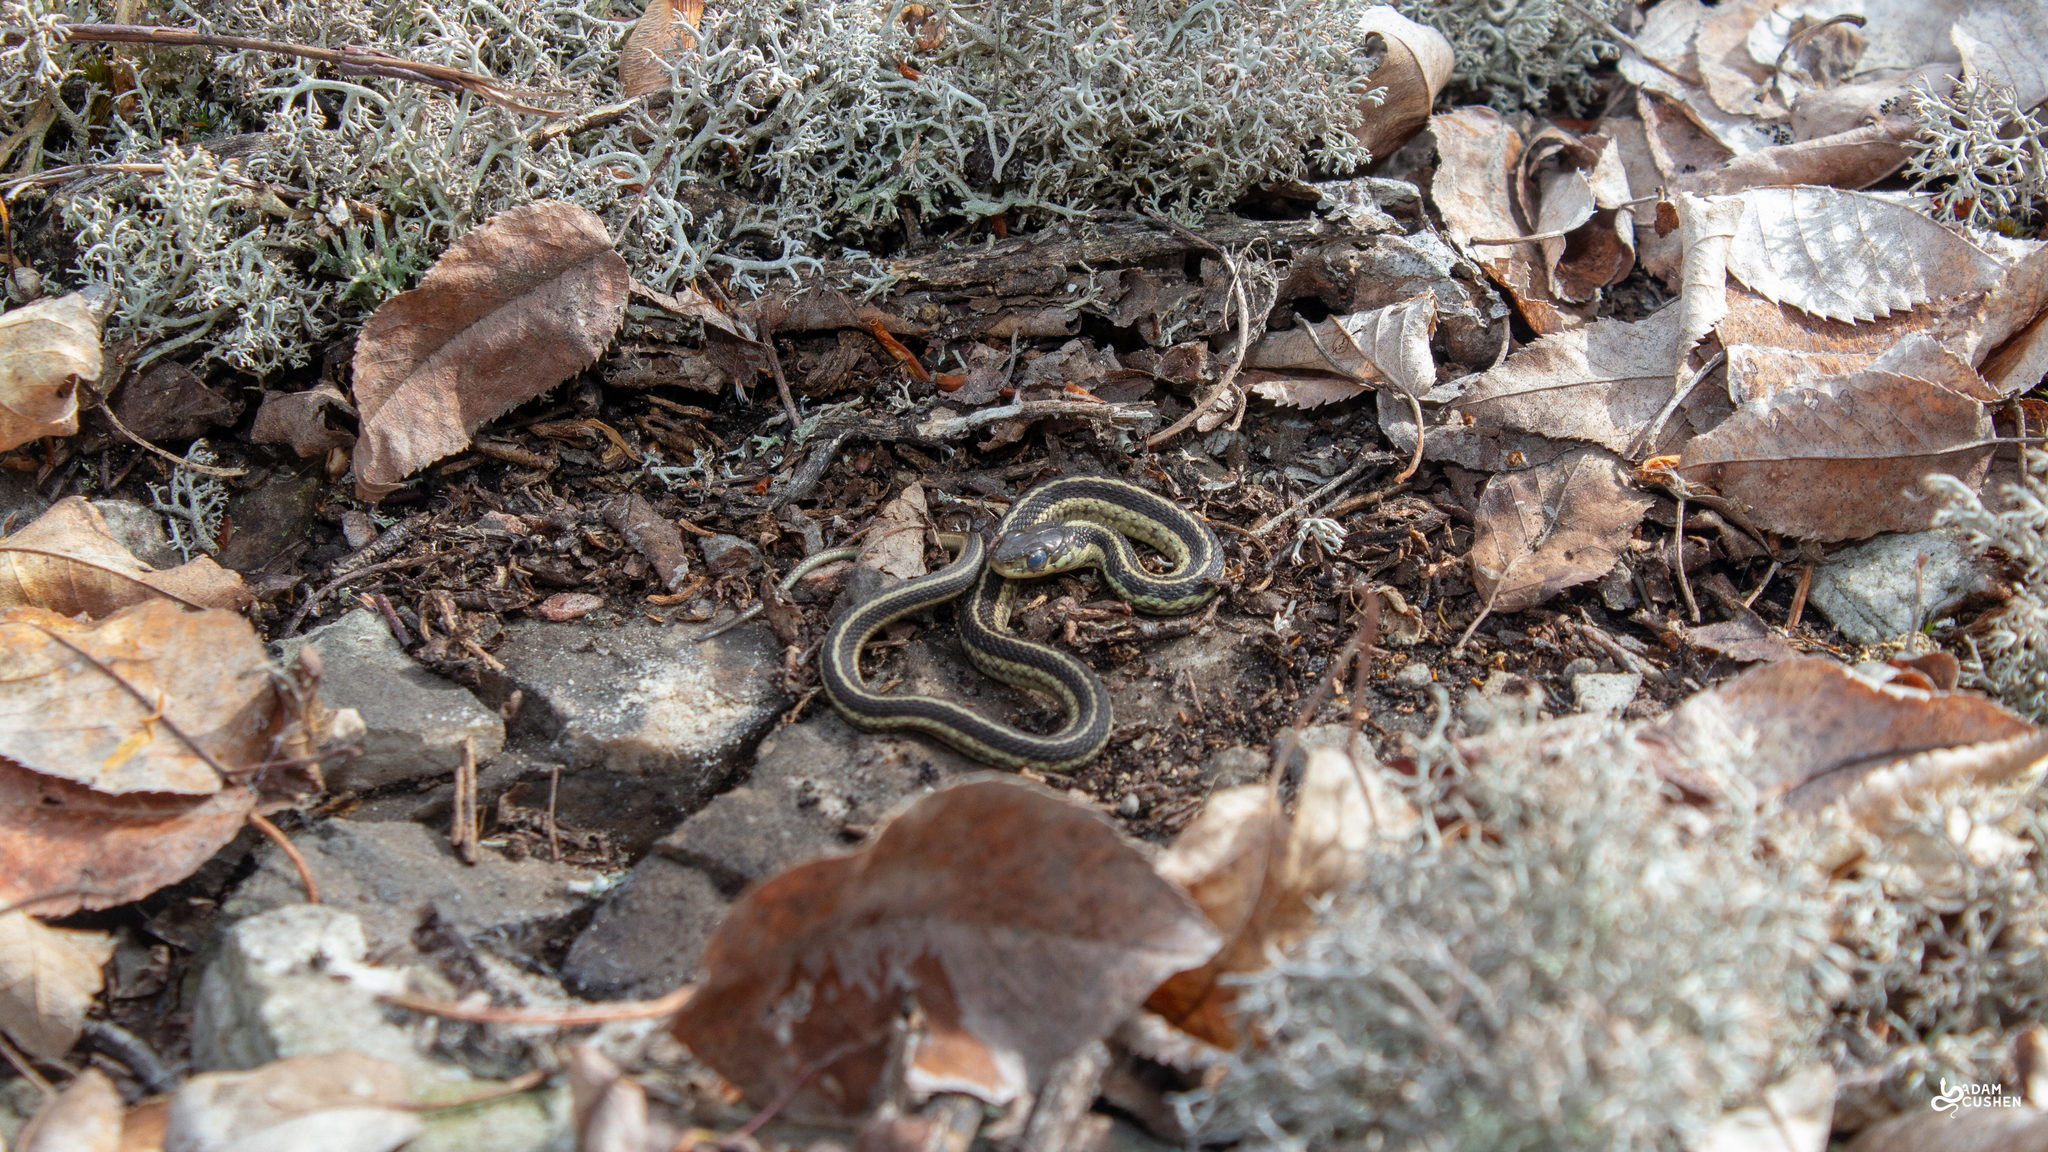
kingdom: Animalia
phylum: Chordata
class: Squamata
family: Colubridae
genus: Thamnophis
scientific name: Thamnophis sirtalis
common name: Common garter snake
